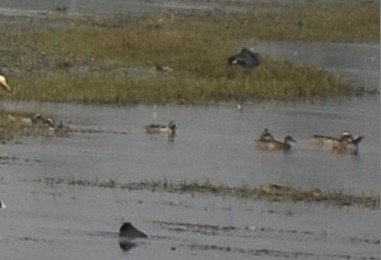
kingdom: Animalia
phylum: Chordata
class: Aves
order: Anseriformes
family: Anatidae
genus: Spatula
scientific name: Spatula querquedula
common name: Garganey
